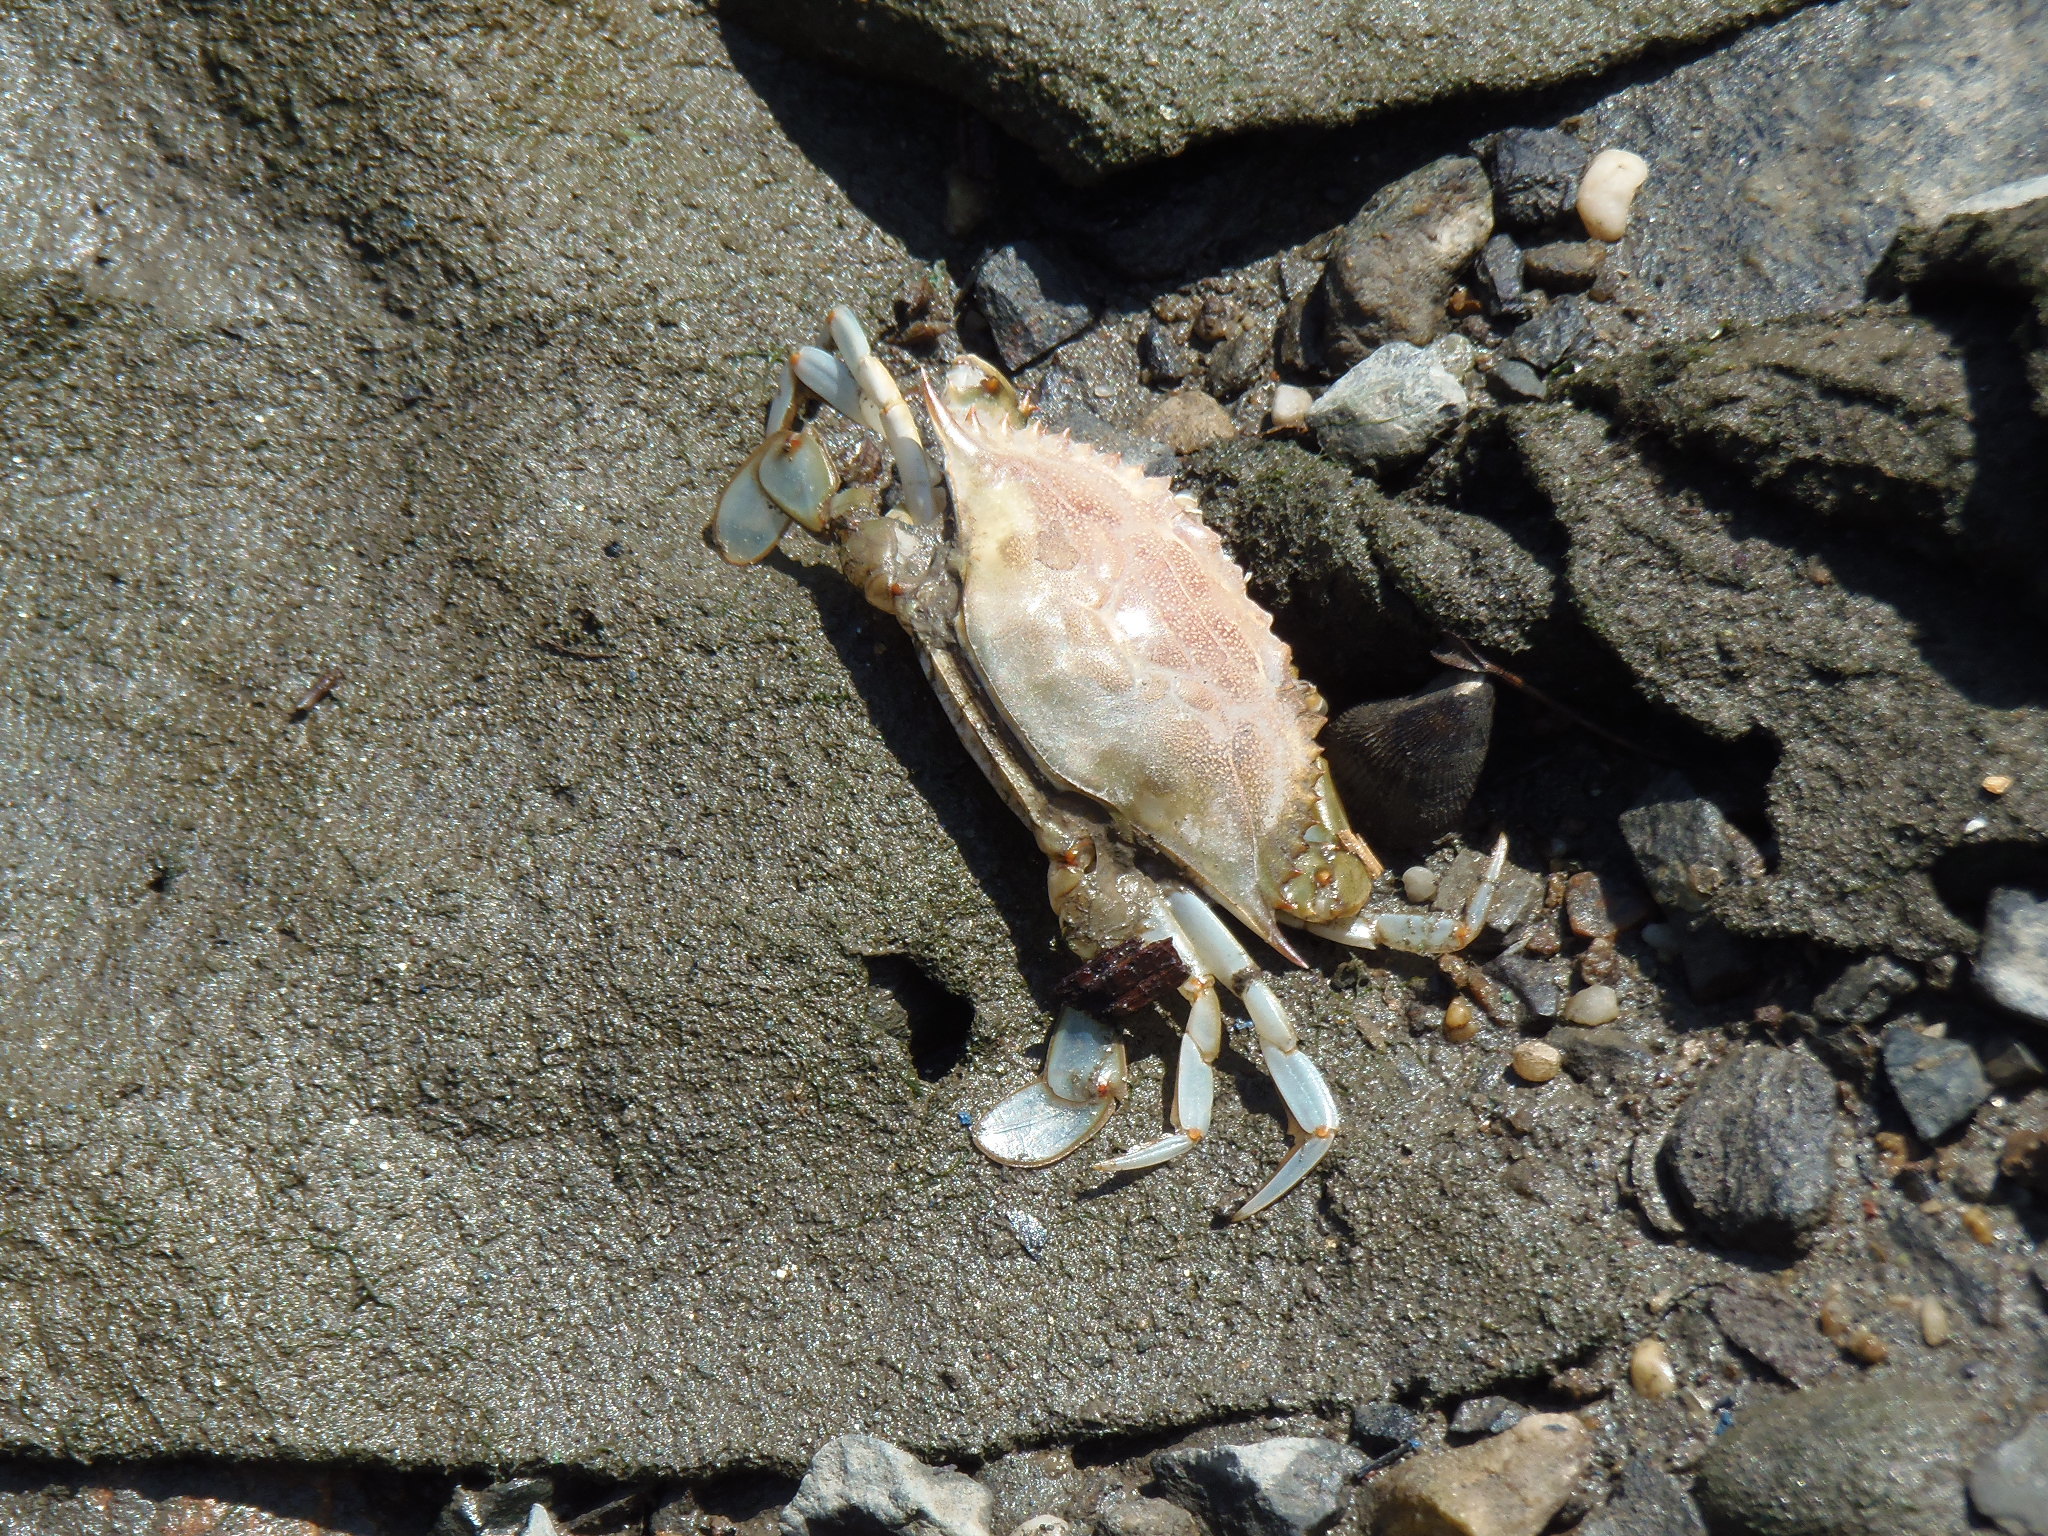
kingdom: Animalia
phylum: Arthropoda
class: Malacostraca
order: Decapoda
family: Portunidae
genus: Callinectes
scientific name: Callinectes sapidus
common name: Blue crab
